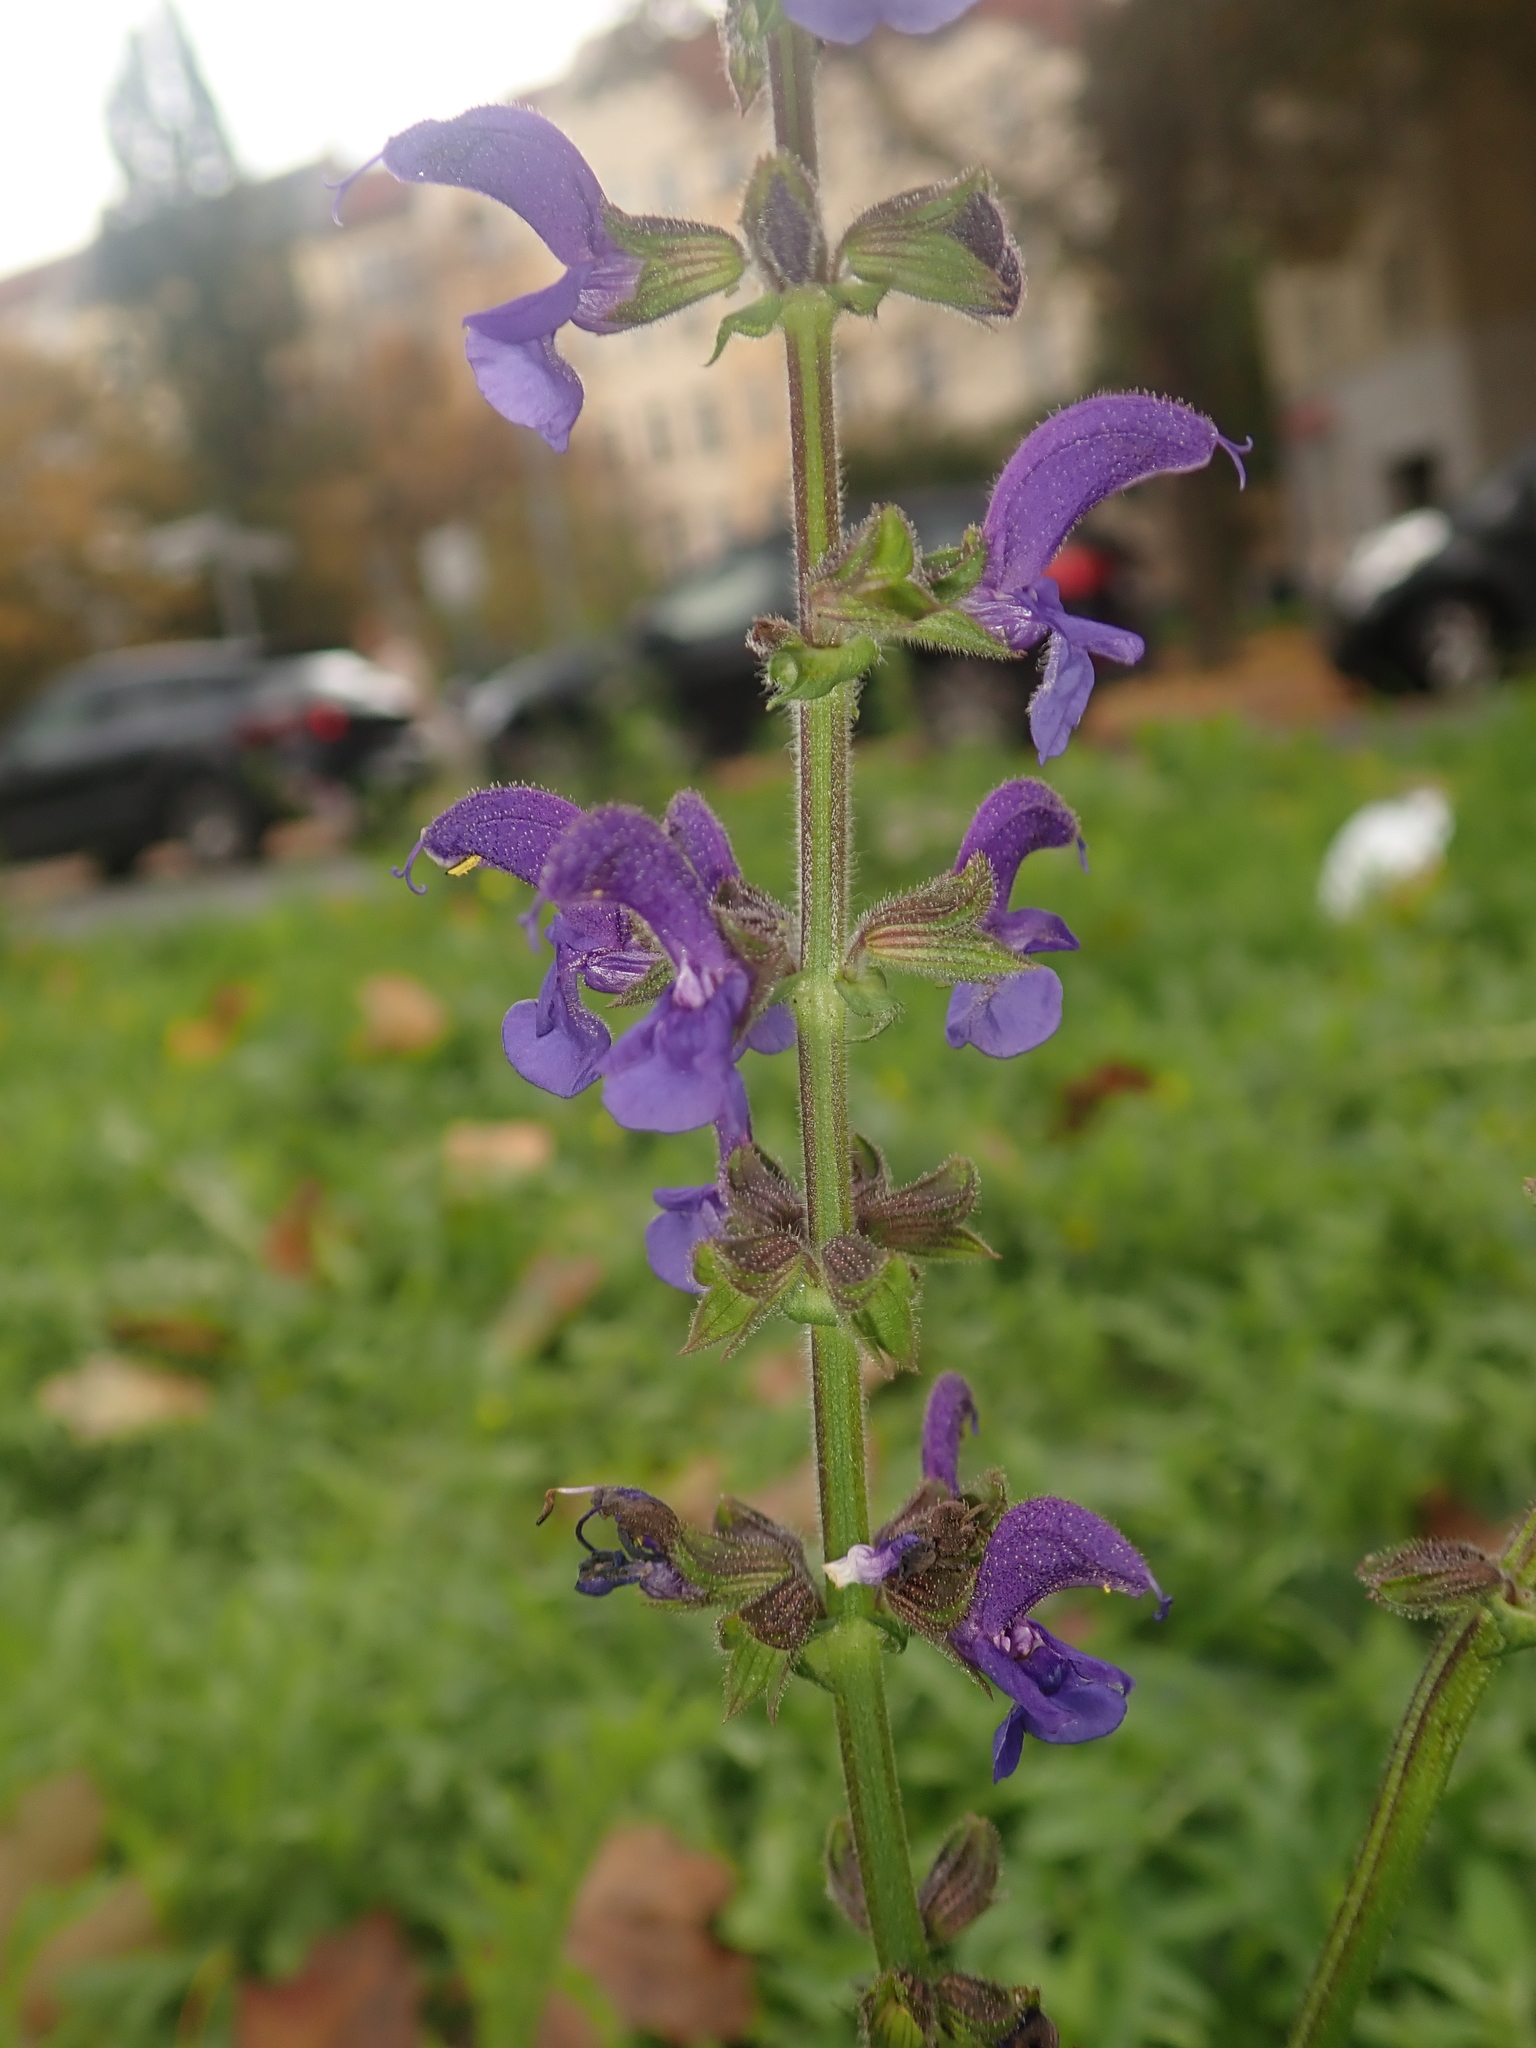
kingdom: Plantae
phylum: Tracheophyta
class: Magnoliopsida
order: Lamiales
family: Lamiaceae
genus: Salvia
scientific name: Salvia pratensis
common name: Meadow sage
